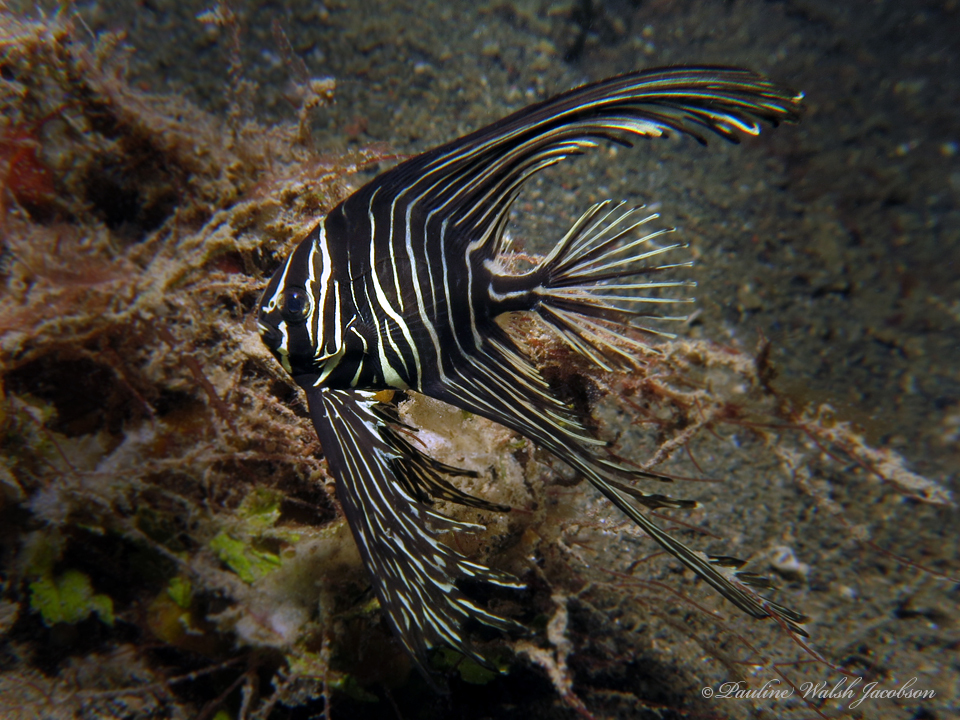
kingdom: Animalia
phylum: Chordata
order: Perciformes
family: Ephippidae
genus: Platax
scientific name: Platax batavianus
